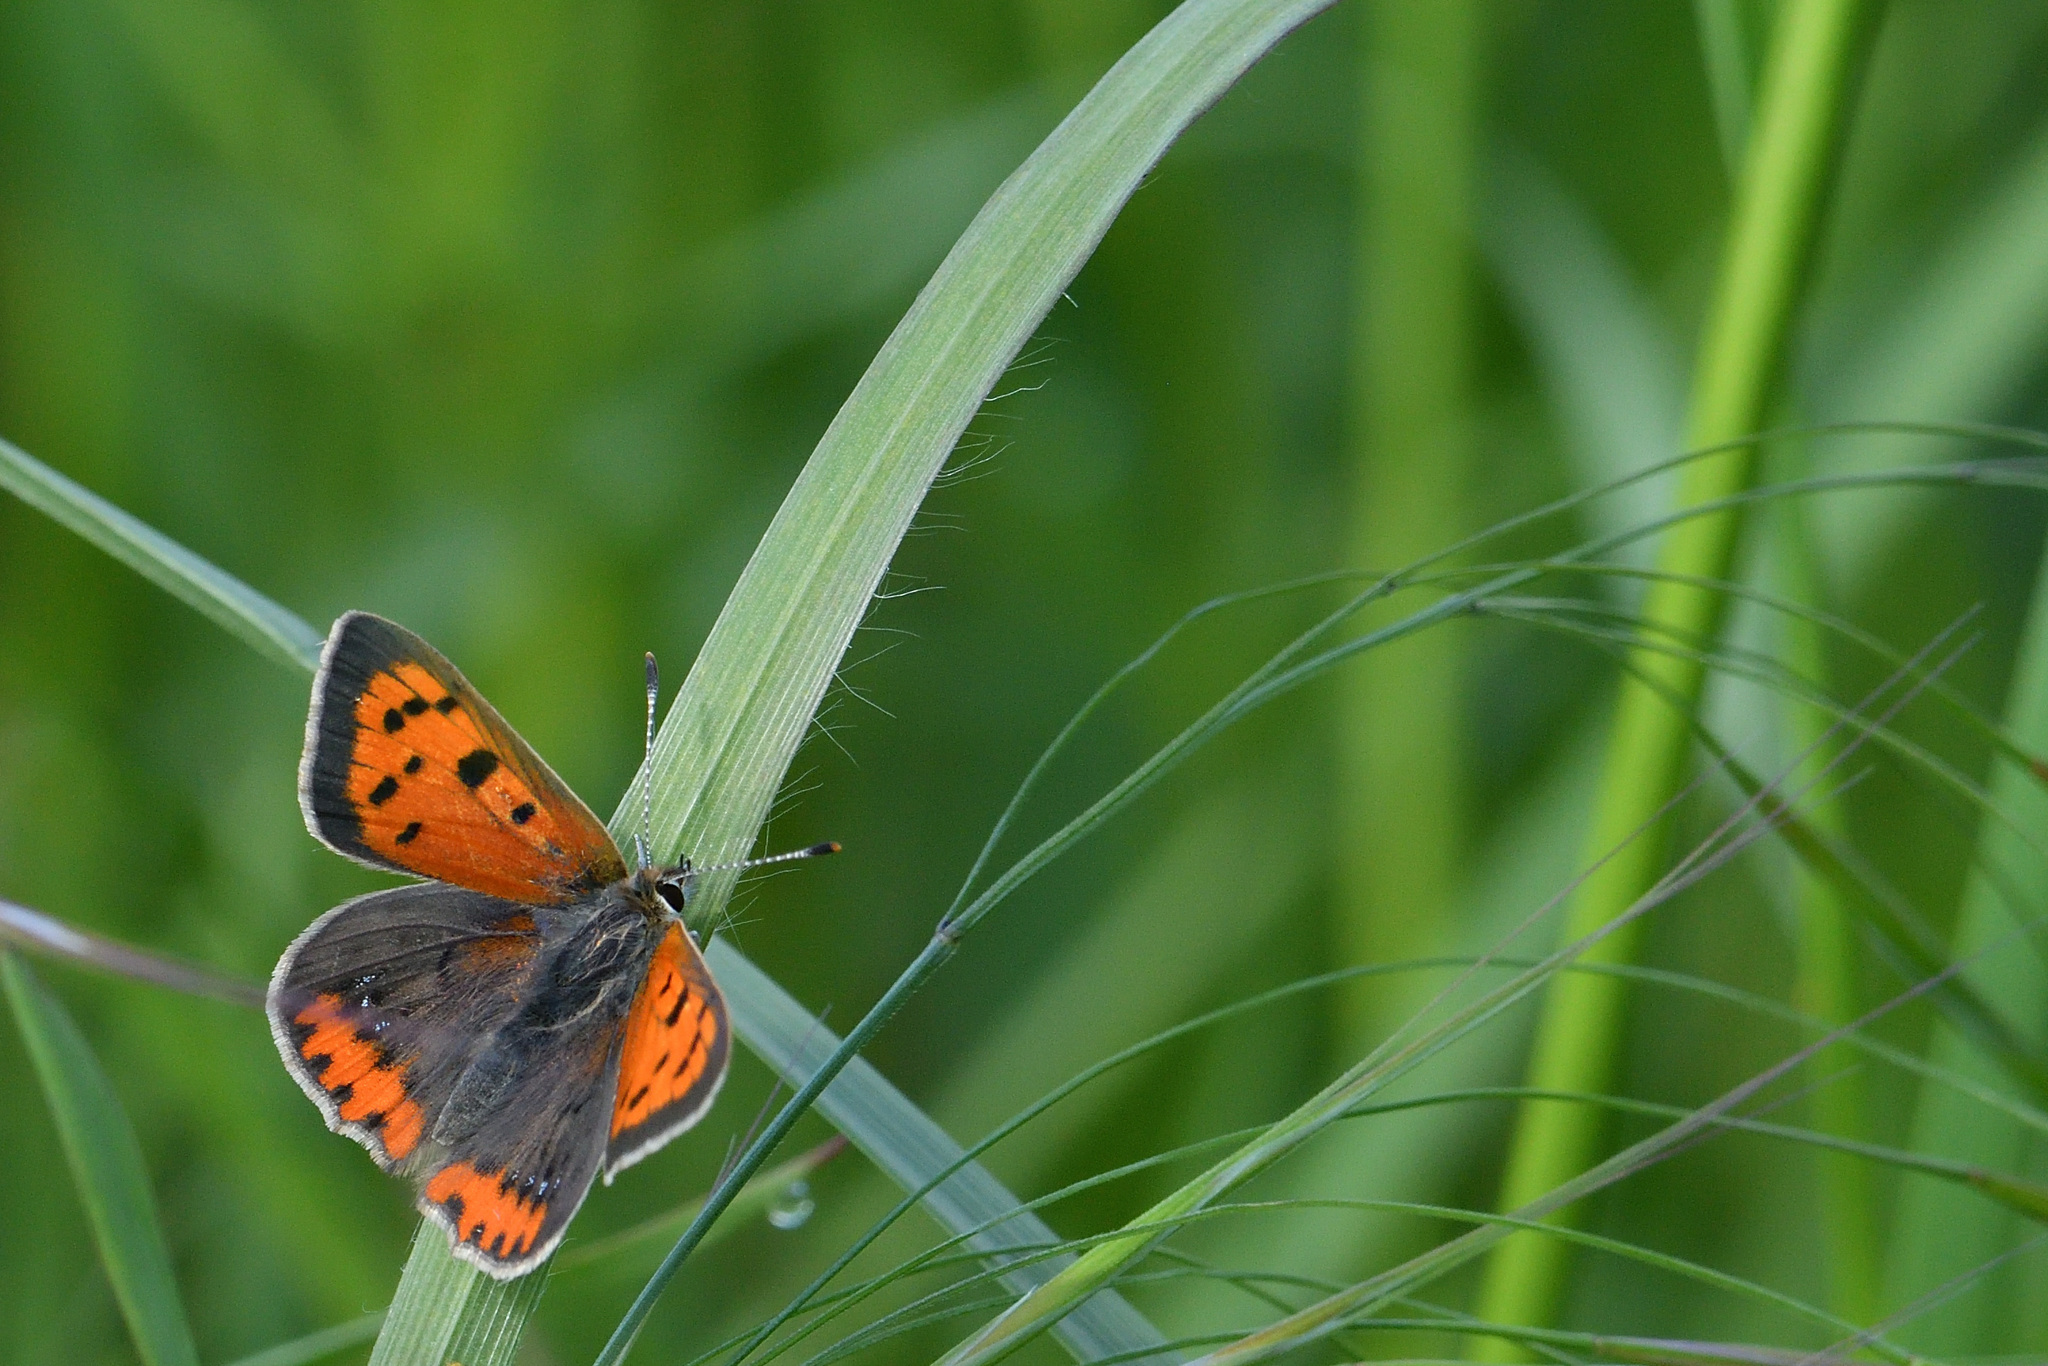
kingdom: Animalia
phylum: Arthropoda
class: Insecta
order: Lepidoptera
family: Lycaenidae
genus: Lycaena
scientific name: Lycaena phlaeas
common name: Small copper
